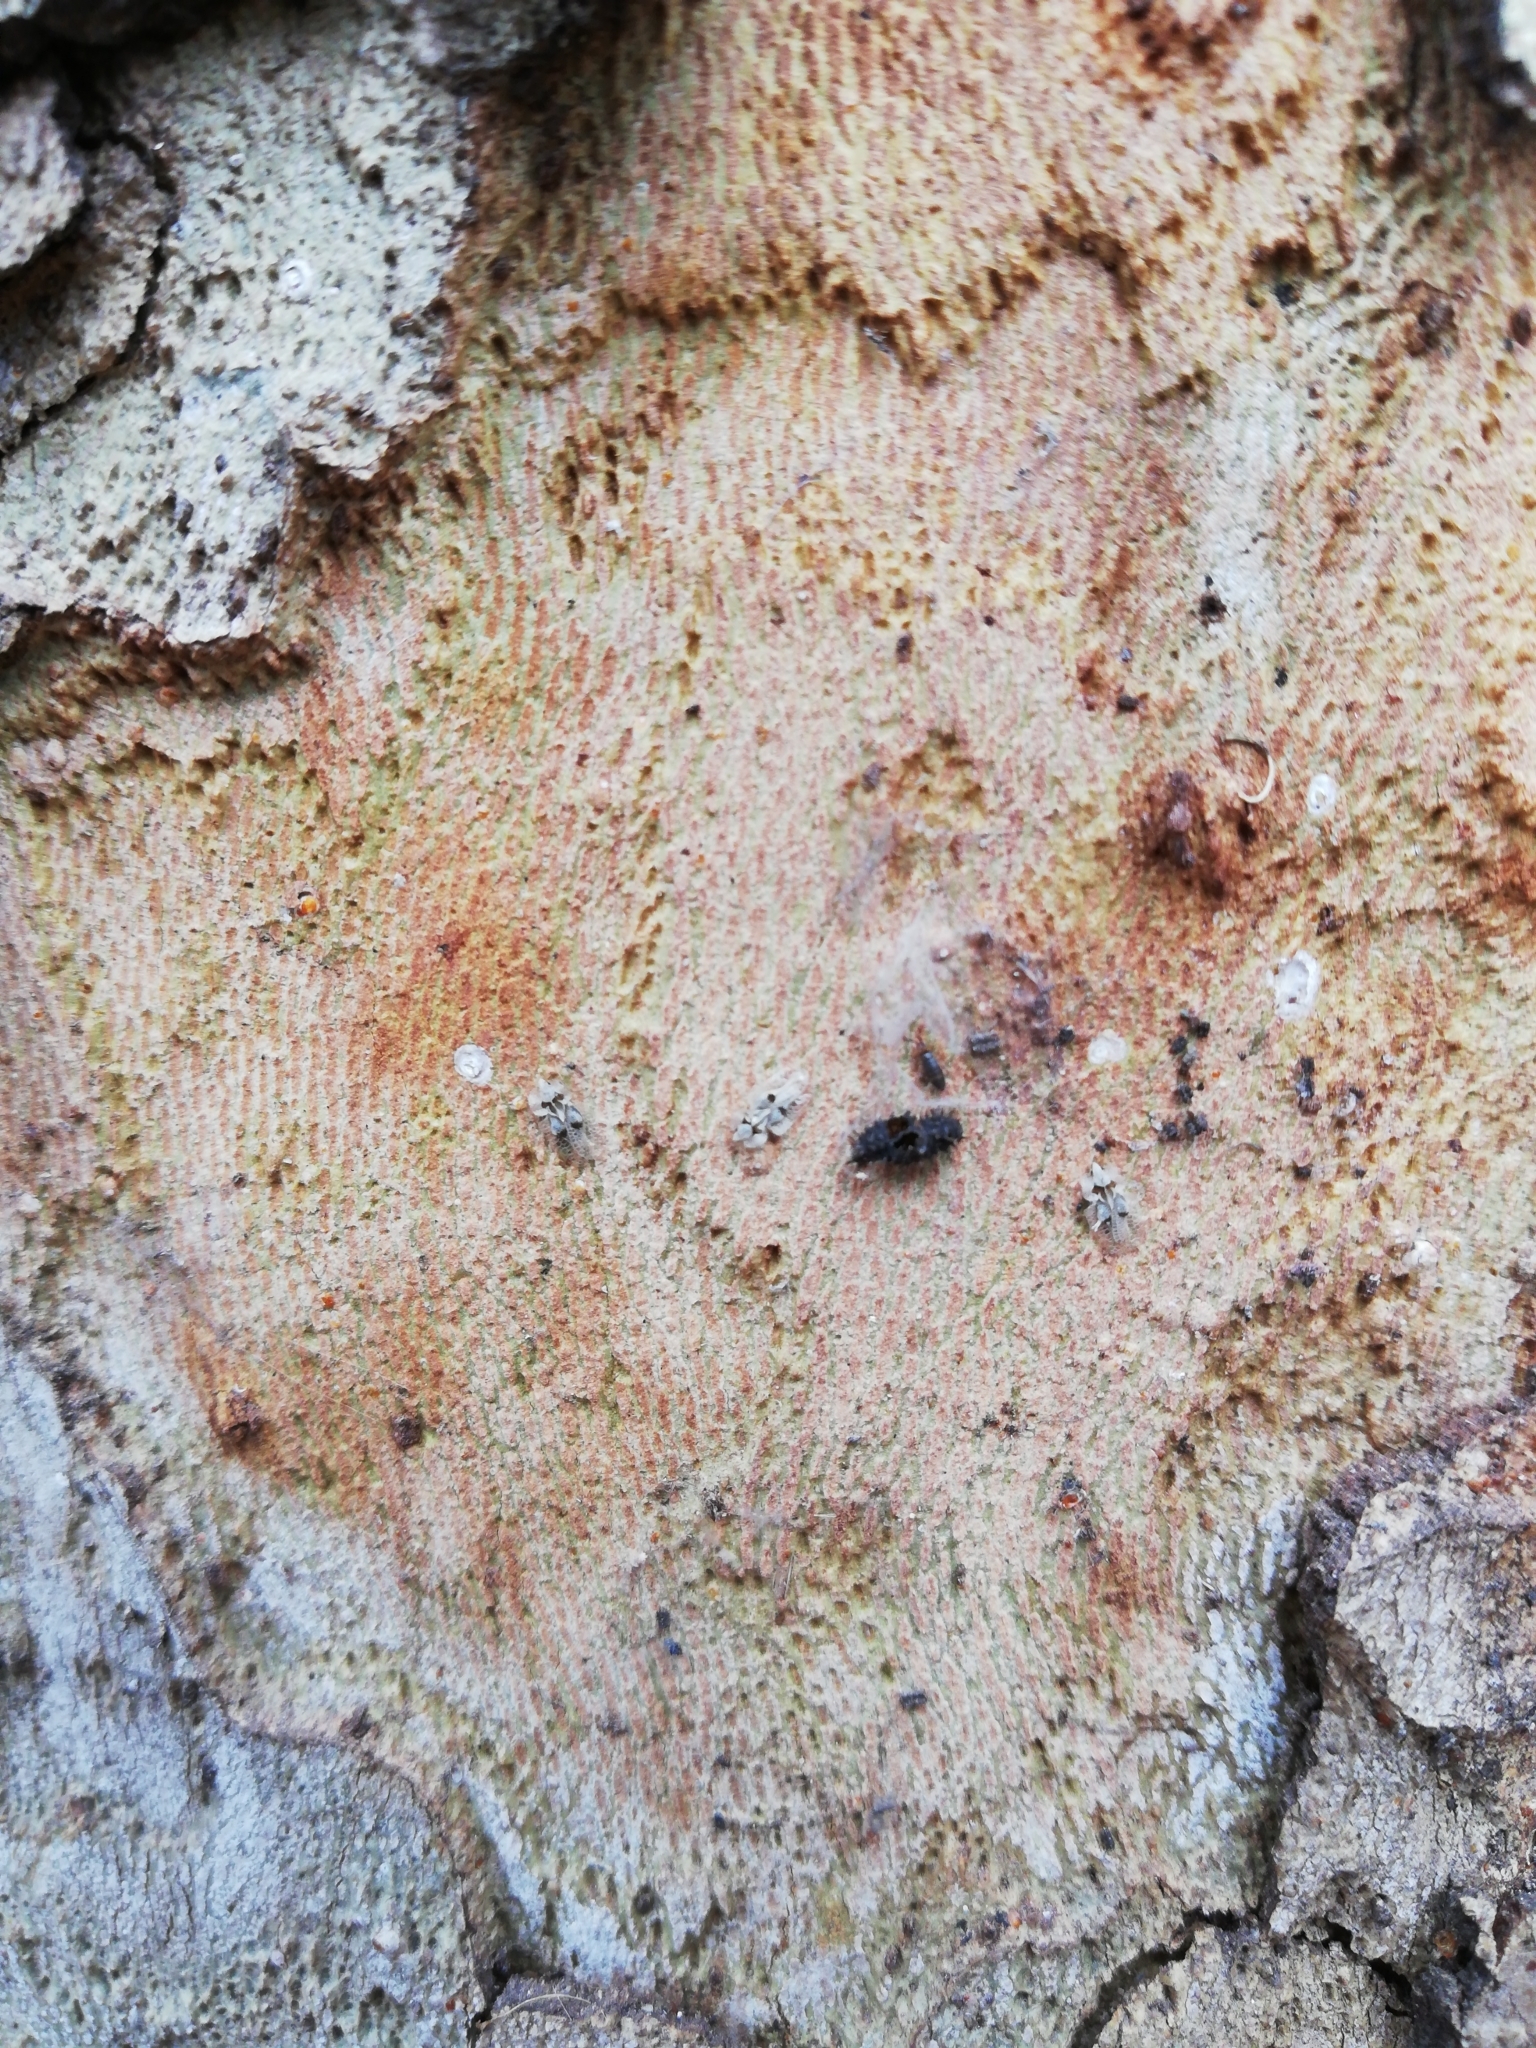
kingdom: Animalia
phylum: Arthropoda
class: Insecta
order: Hemiptera
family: Tingidae
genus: Corythucha
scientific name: Corythucha ciliata
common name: Sycamore lace bug
